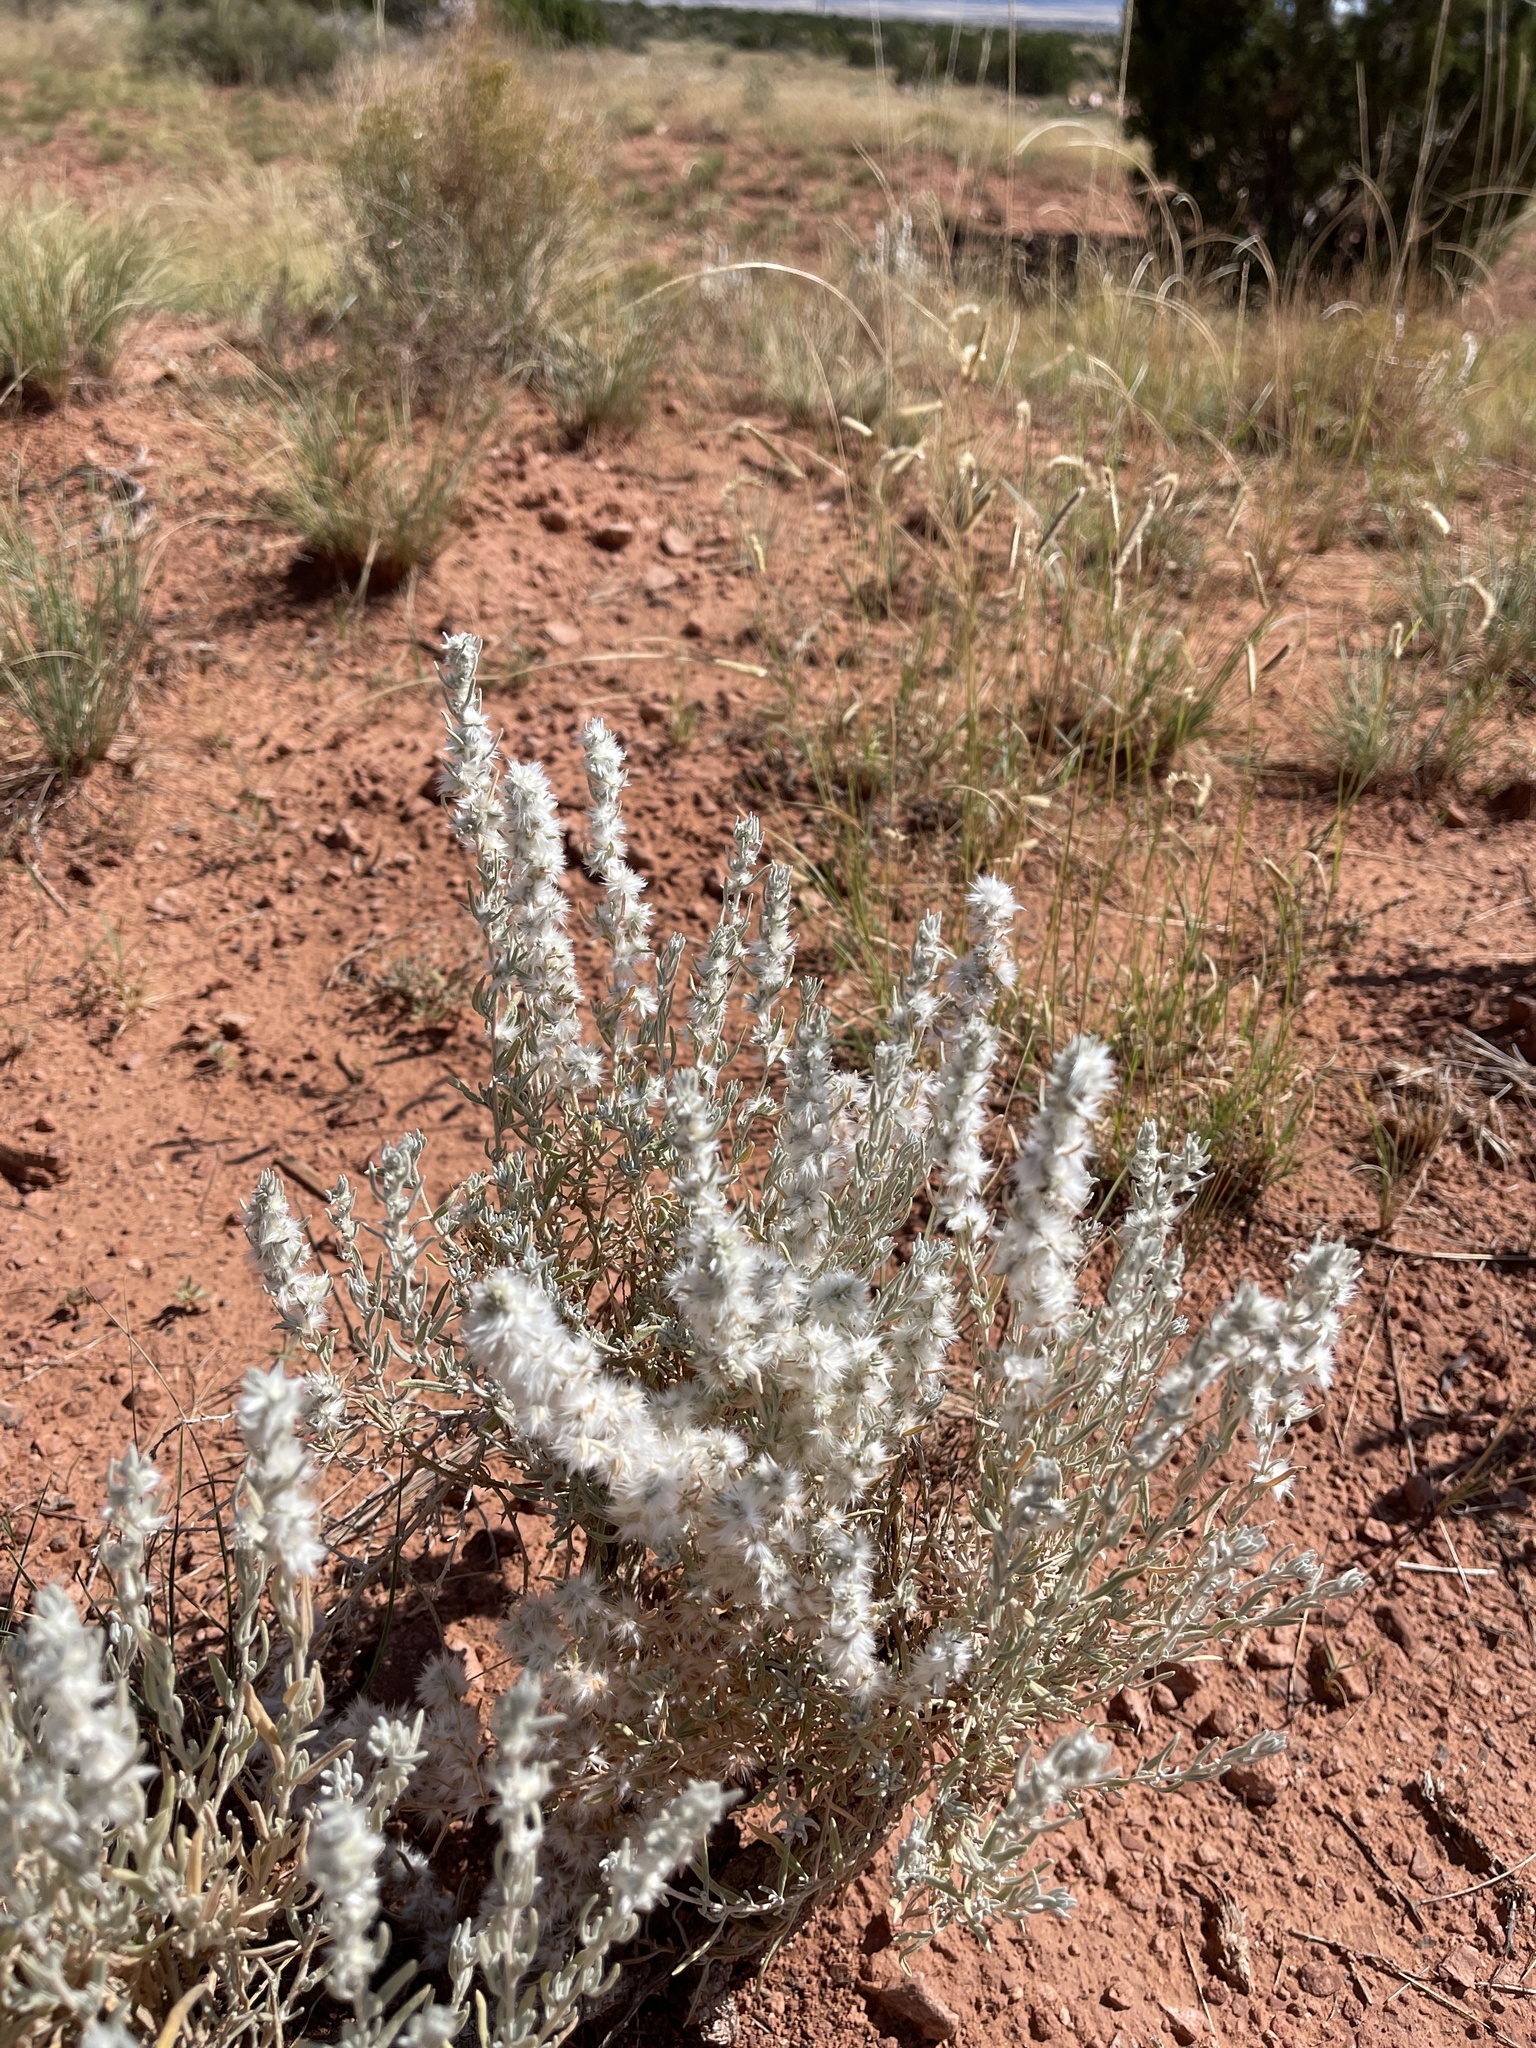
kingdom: Plantae
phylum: Tracheophyta
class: Magnoliopsida
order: Caryophyllales
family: Amaranthaceae
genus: Krascheninnikovia
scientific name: Krascheninnikovia lanata
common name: Winterfat
